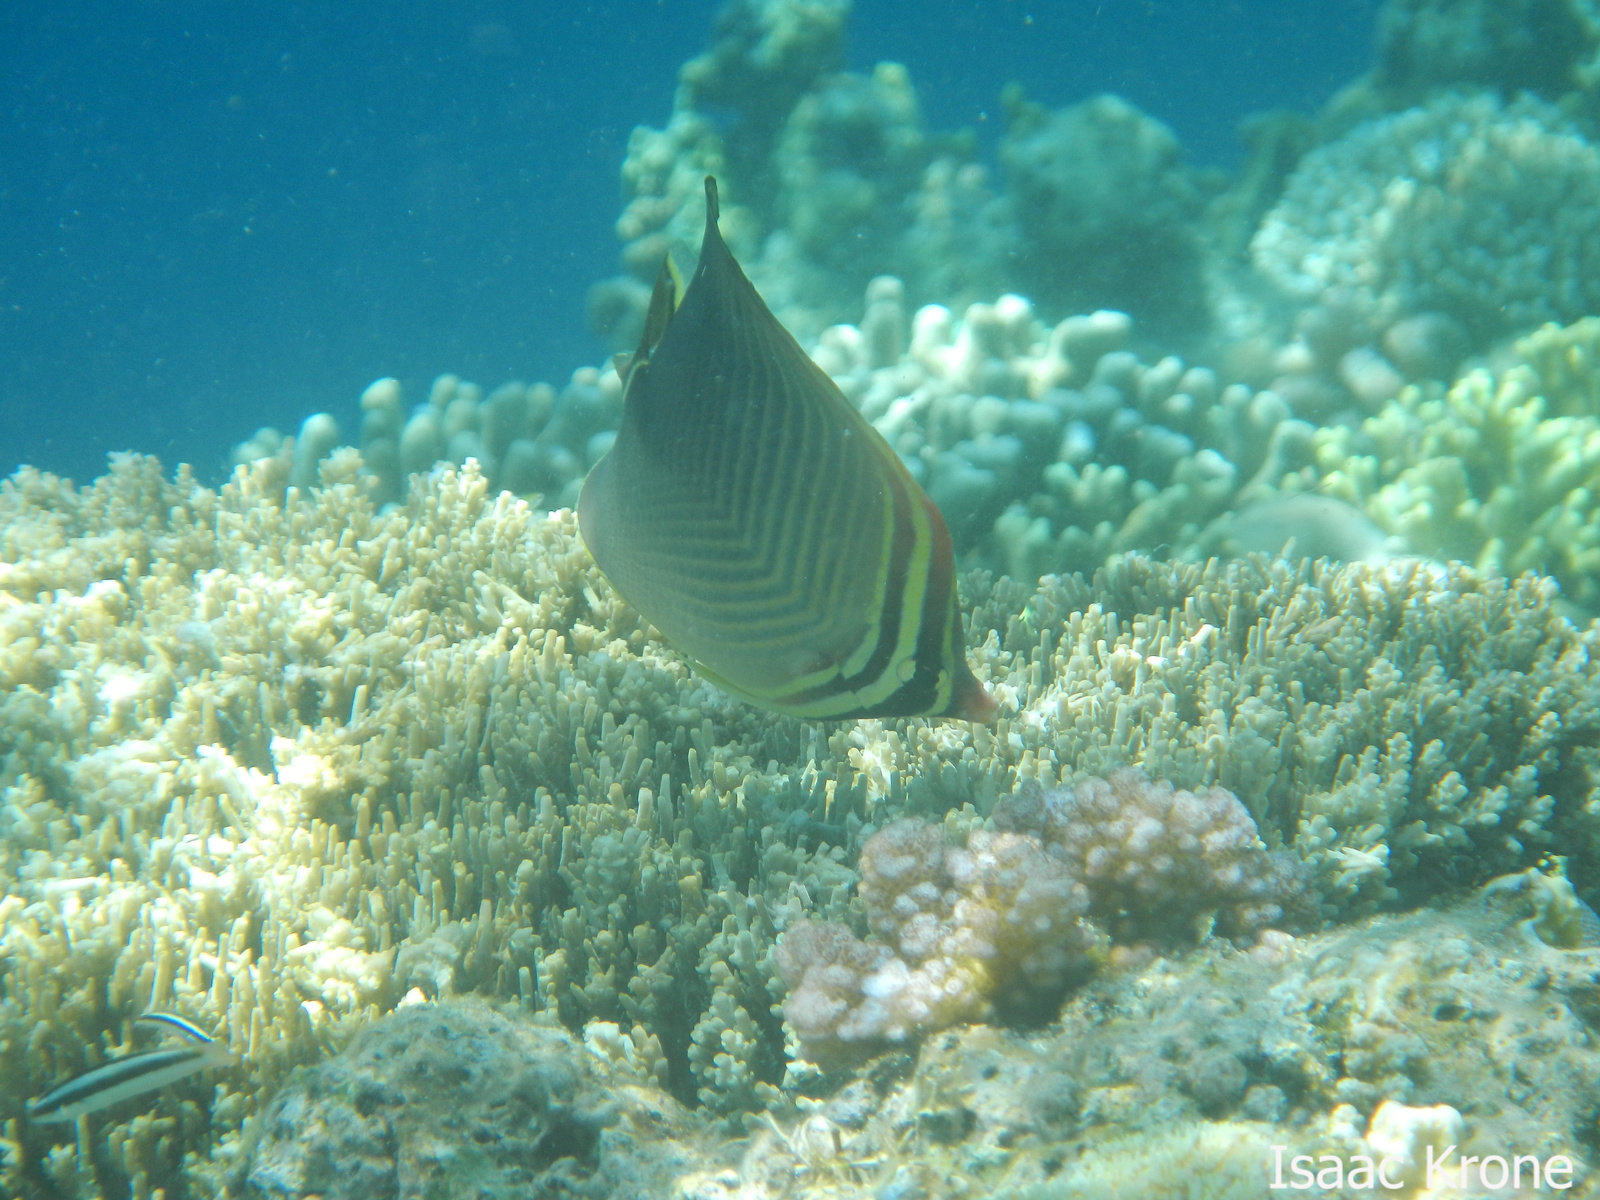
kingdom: Animalia
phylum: Chordata
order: Perciformes
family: Chaetodontidae
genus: Chaetodon
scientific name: Chaetodon baronessa
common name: Triangular butterflyfish
